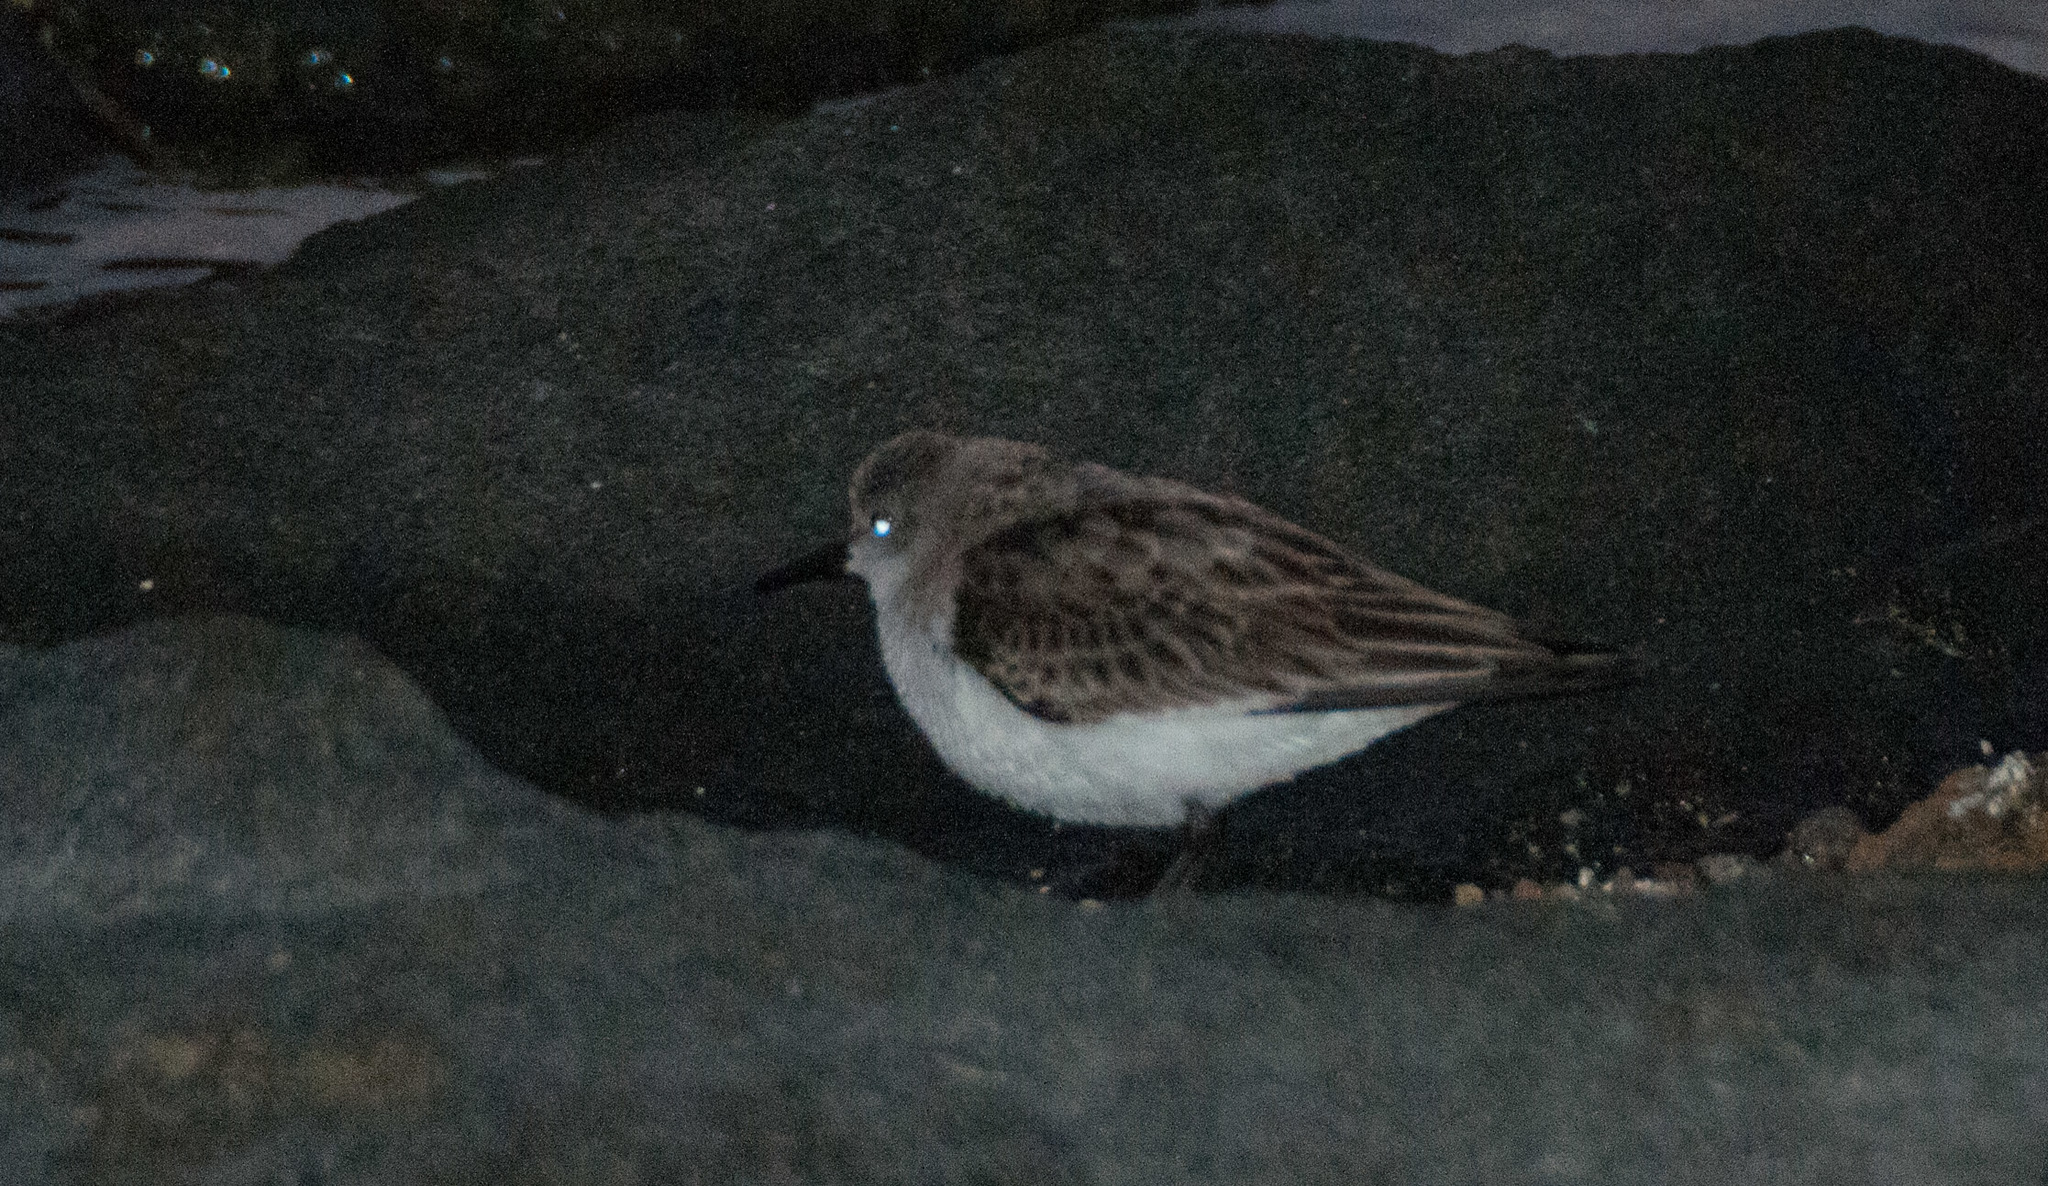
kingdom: Animalia
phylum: Chordata
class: Aves
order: Charadriiformes
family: Scolopacidae
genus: Calidris
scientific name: Calidris ruficollis
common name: Red-necked stint
